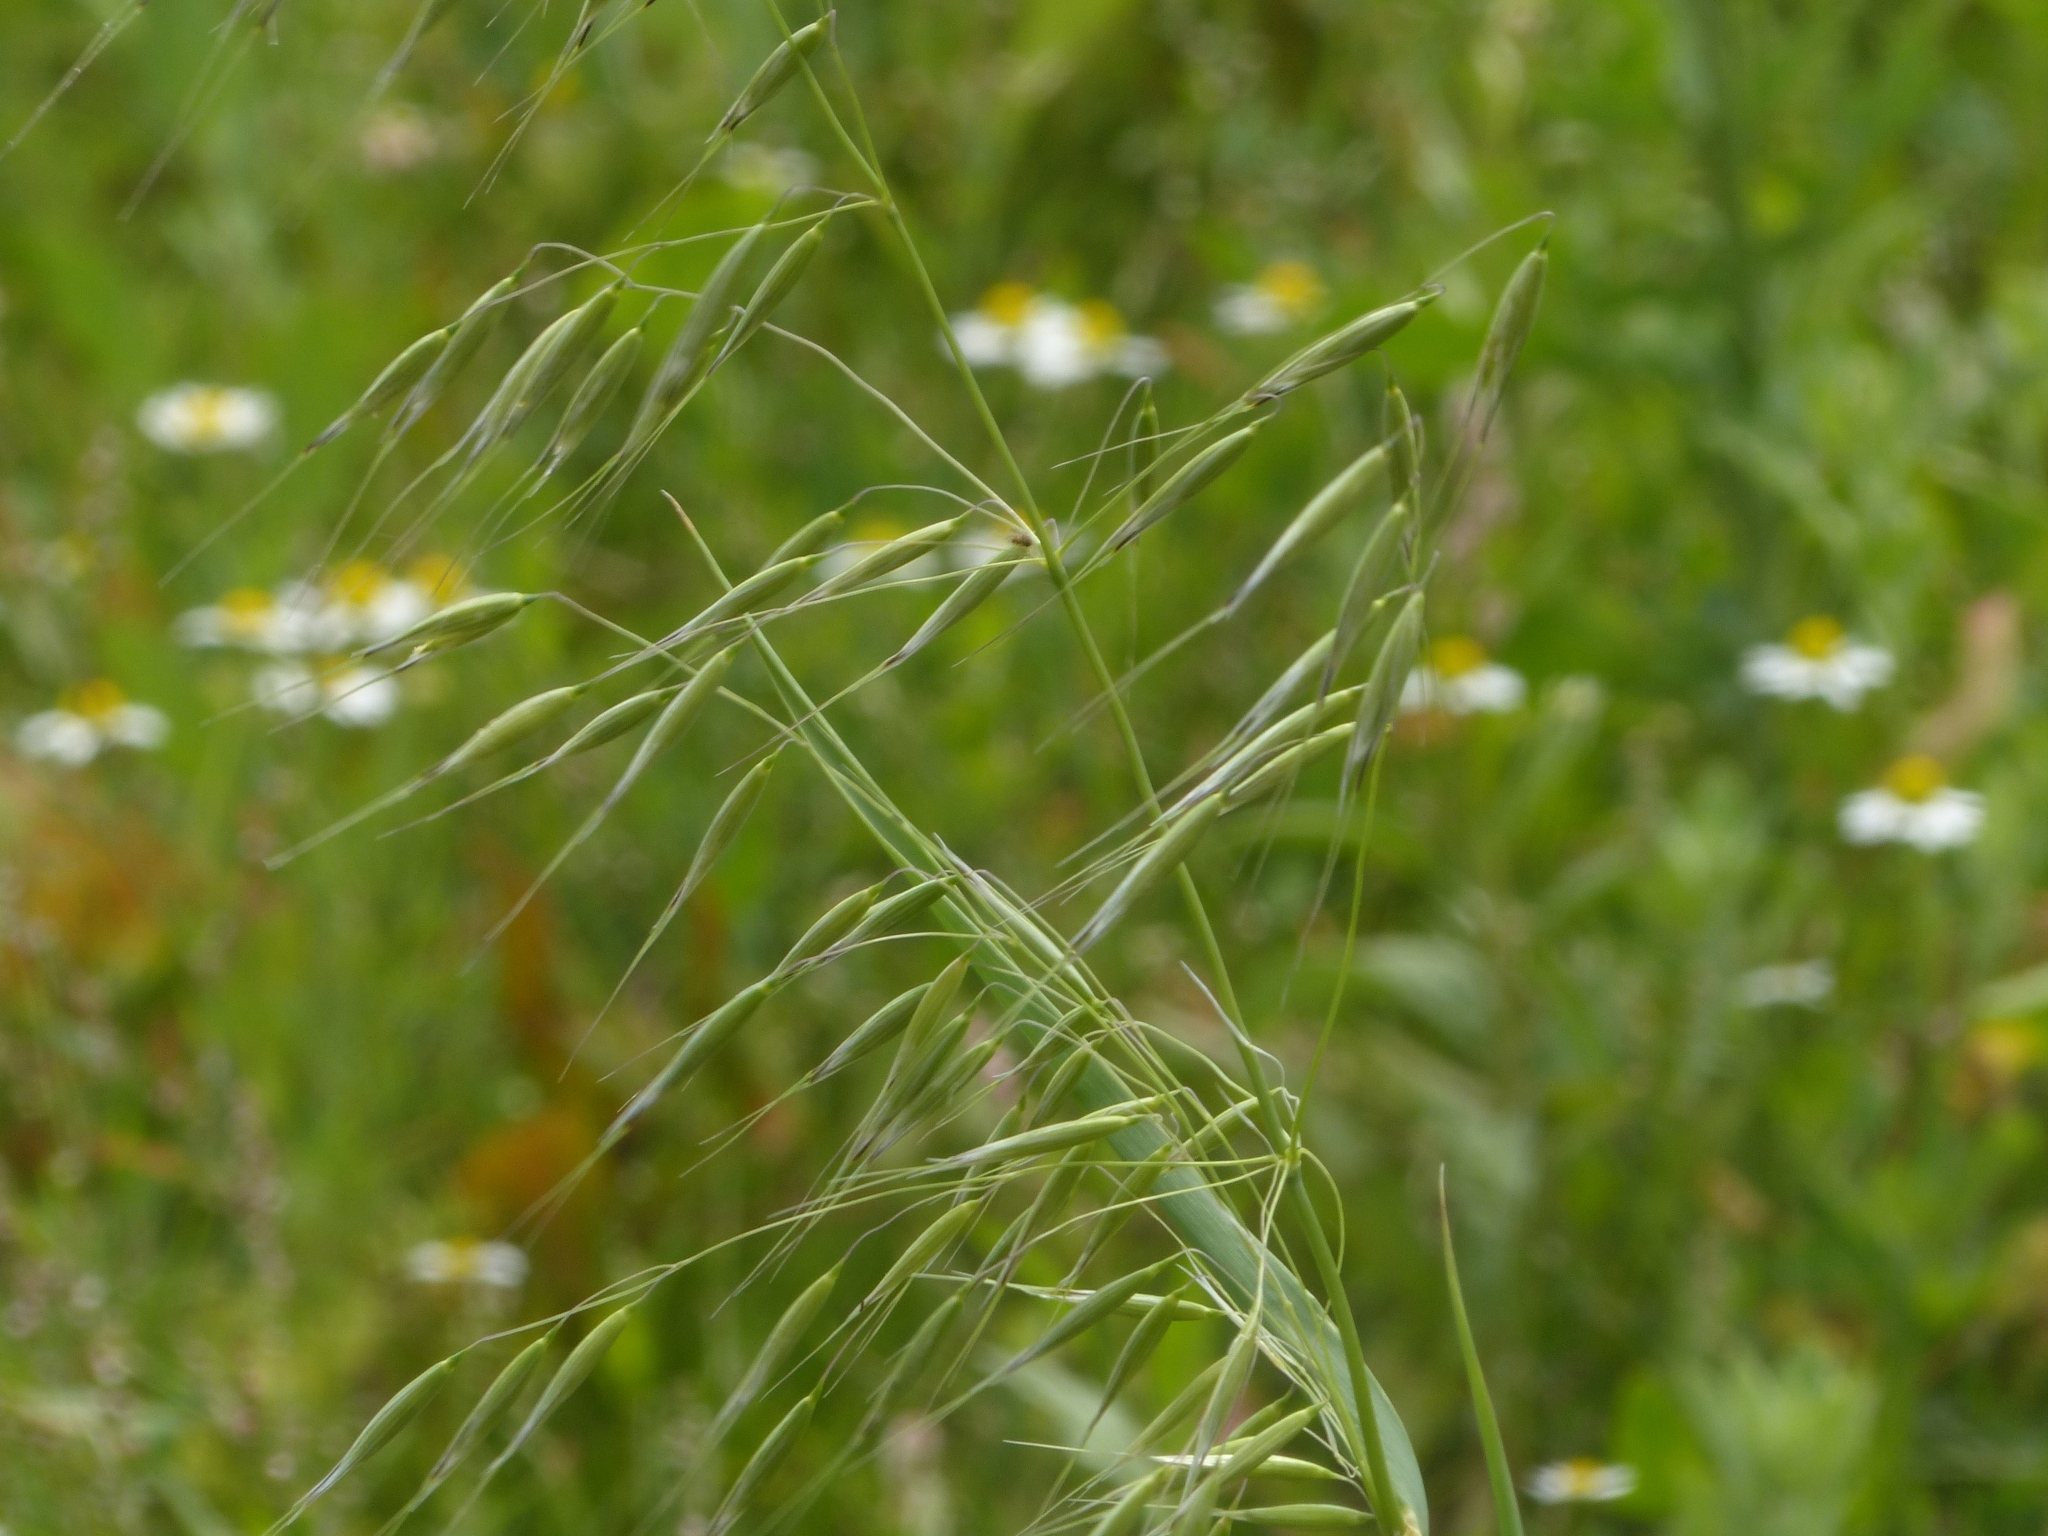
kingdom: Plantae
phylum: Tracheophyta
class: Liliopsida
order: Poales
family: Poaceae
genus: Avena
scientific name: Avena fatua
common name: Wild oat
